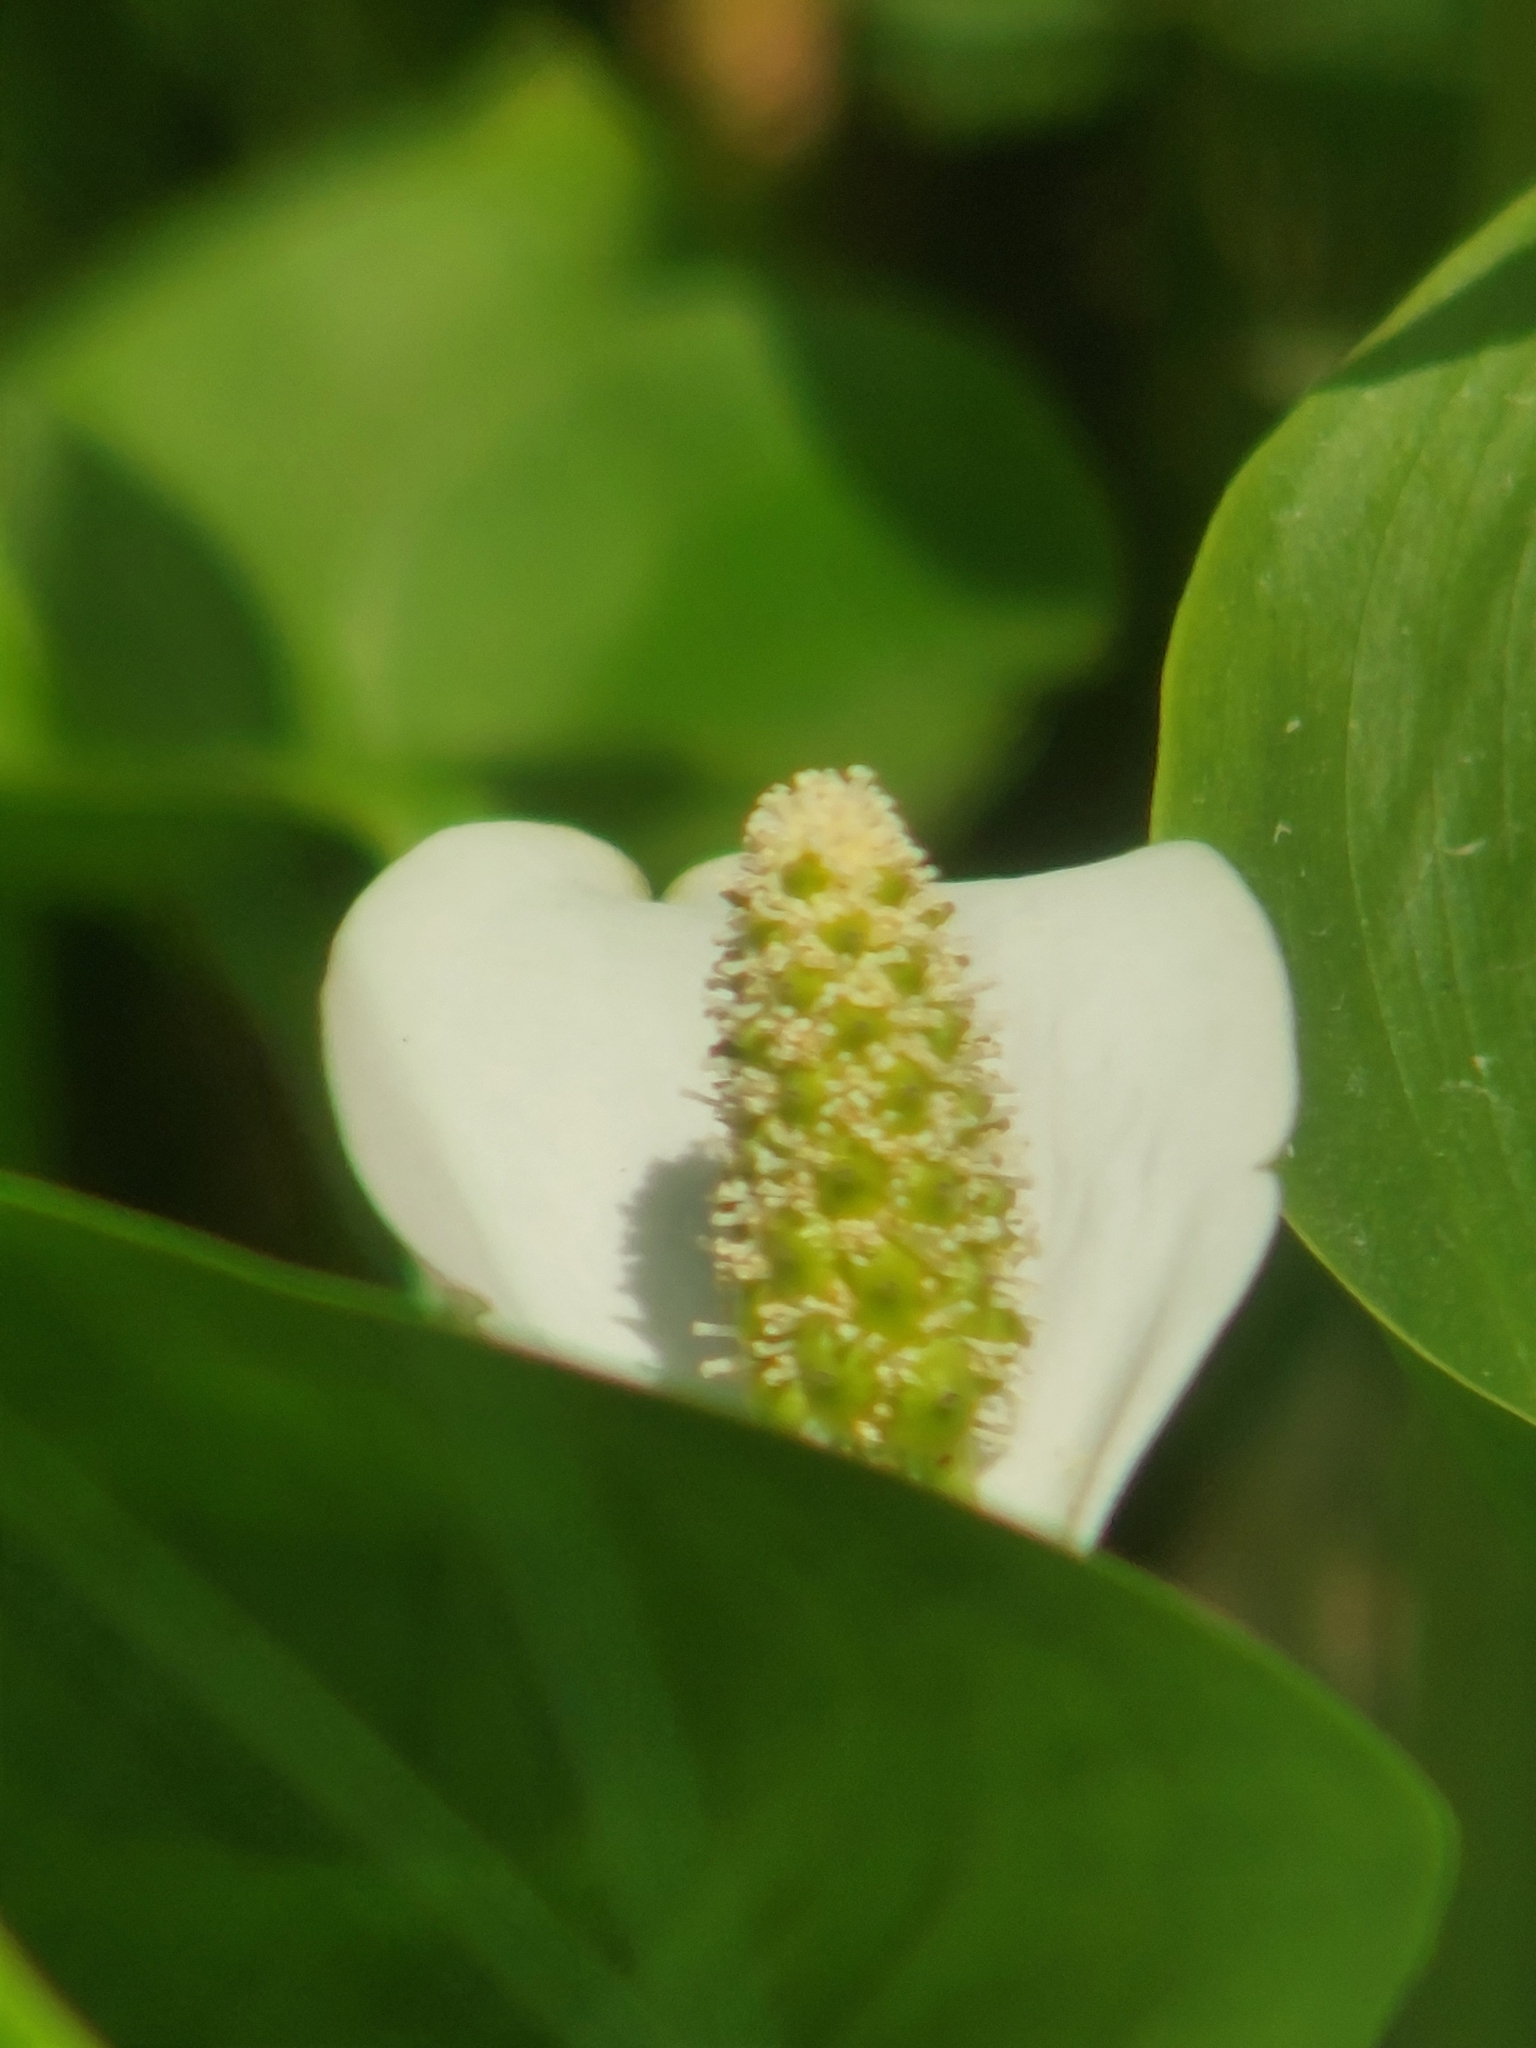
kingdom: Plantae
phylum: Tracheophyta
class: Liliopsida
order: Alismatales
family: Araceae
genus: Calla
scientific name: Calla palustris
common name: Bog arum
